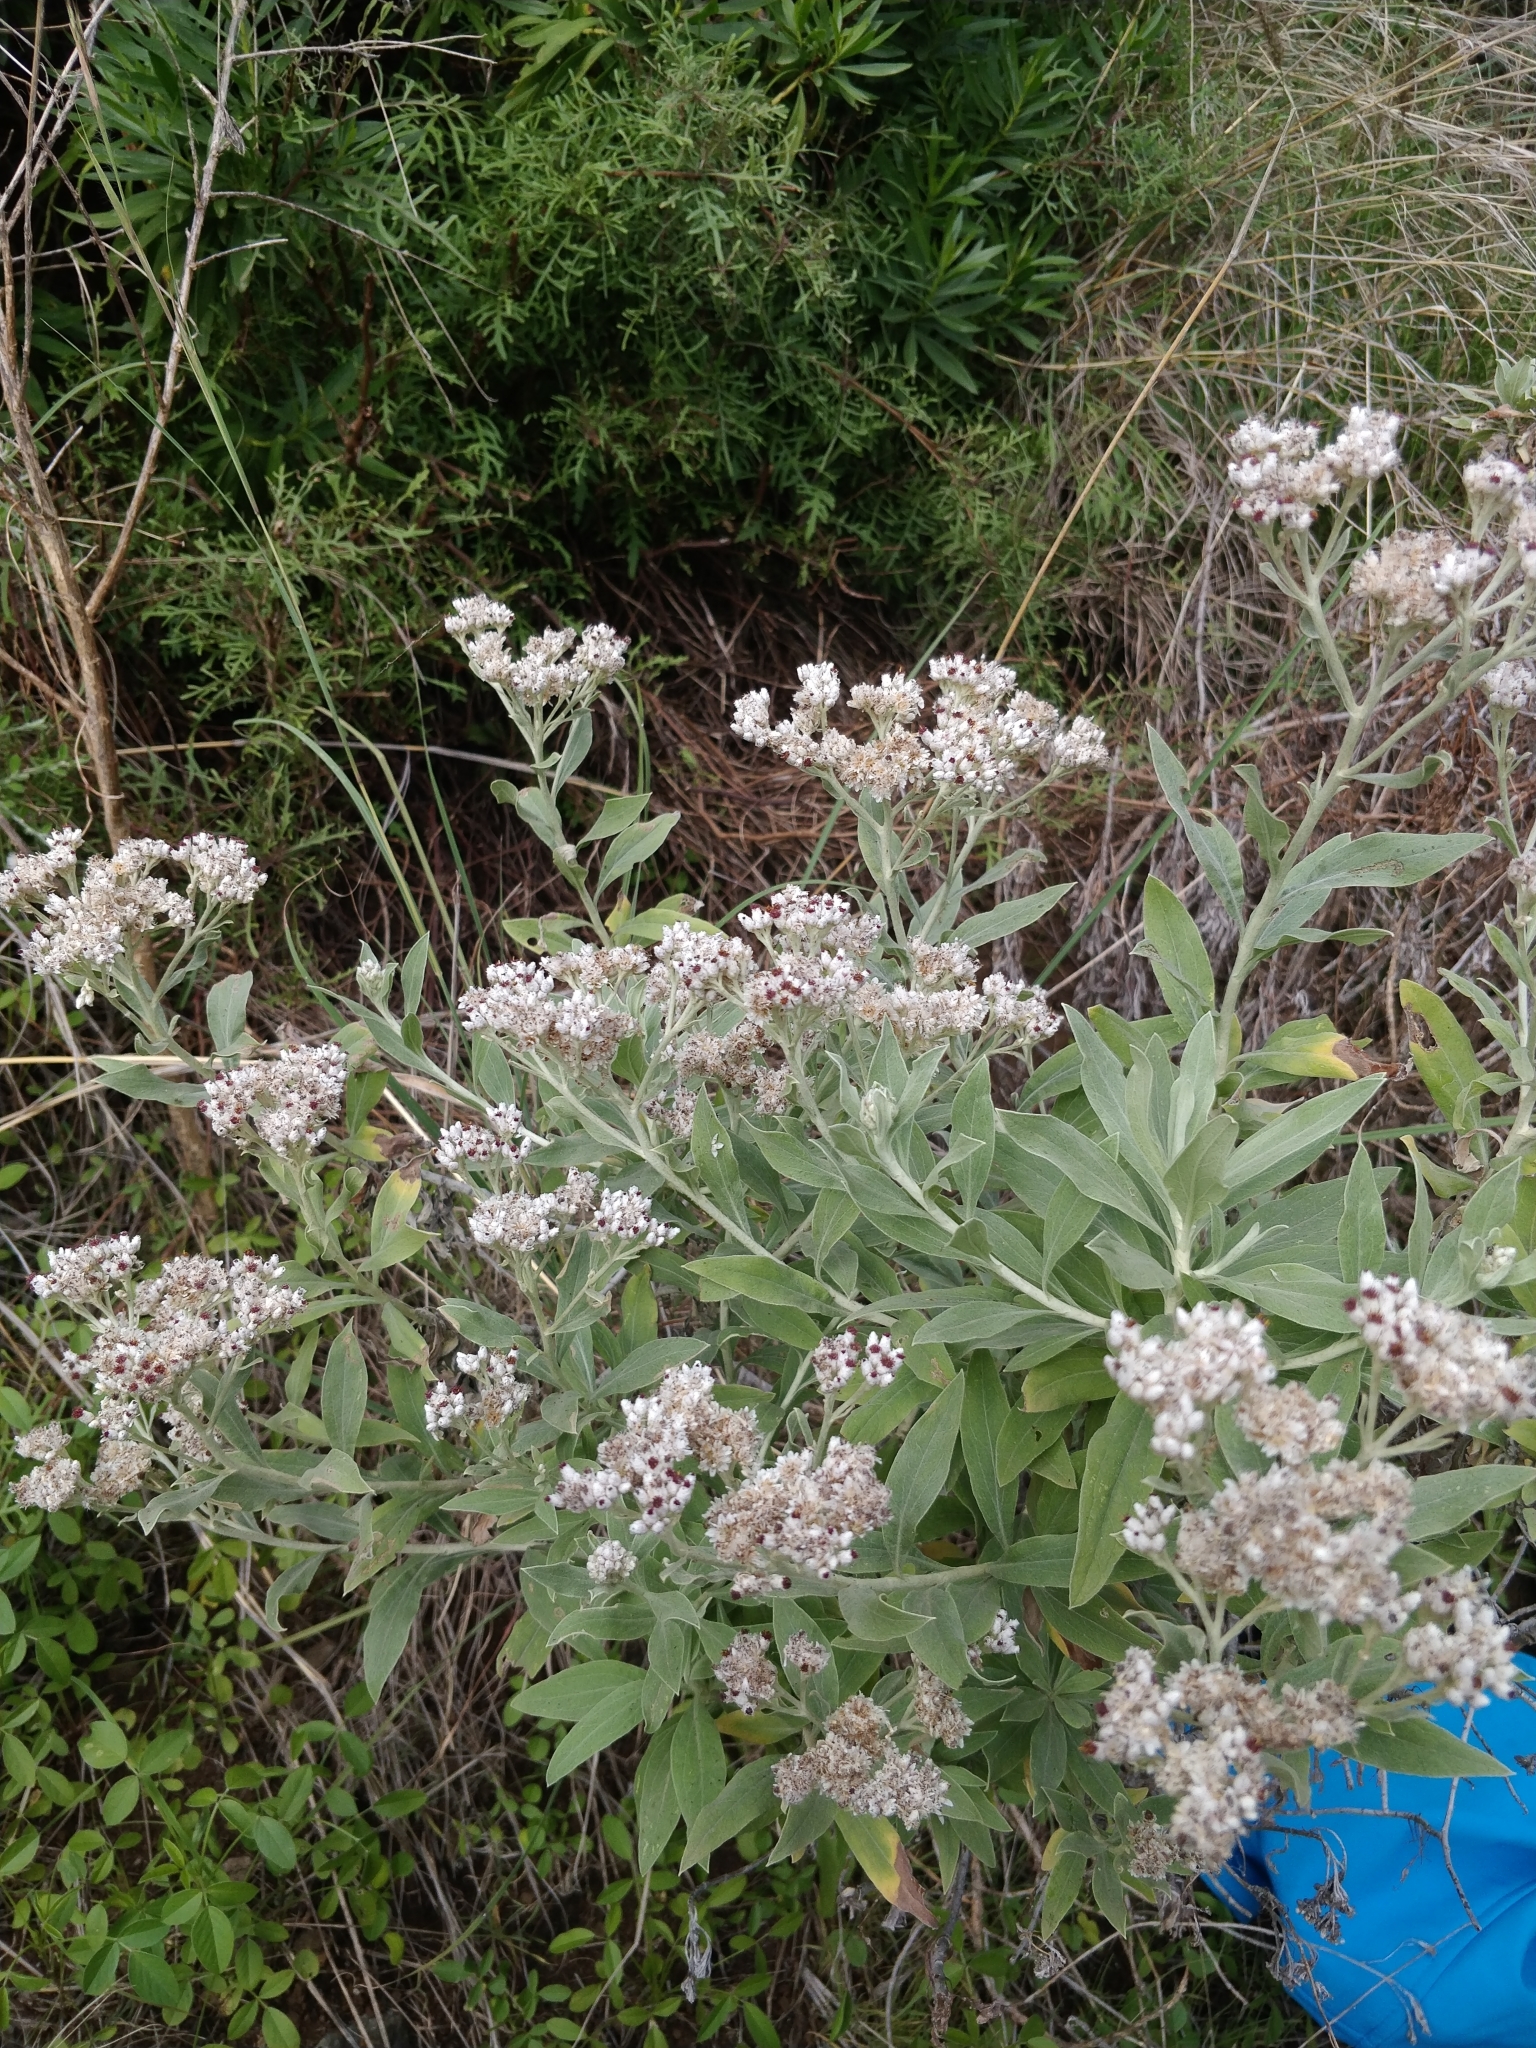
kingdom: Plantae
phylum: Tracheophyta
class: Magnoliopsida
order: Asterales
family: Asteraceae
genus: Helichrysum
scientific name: Helichrysum melaleucum
